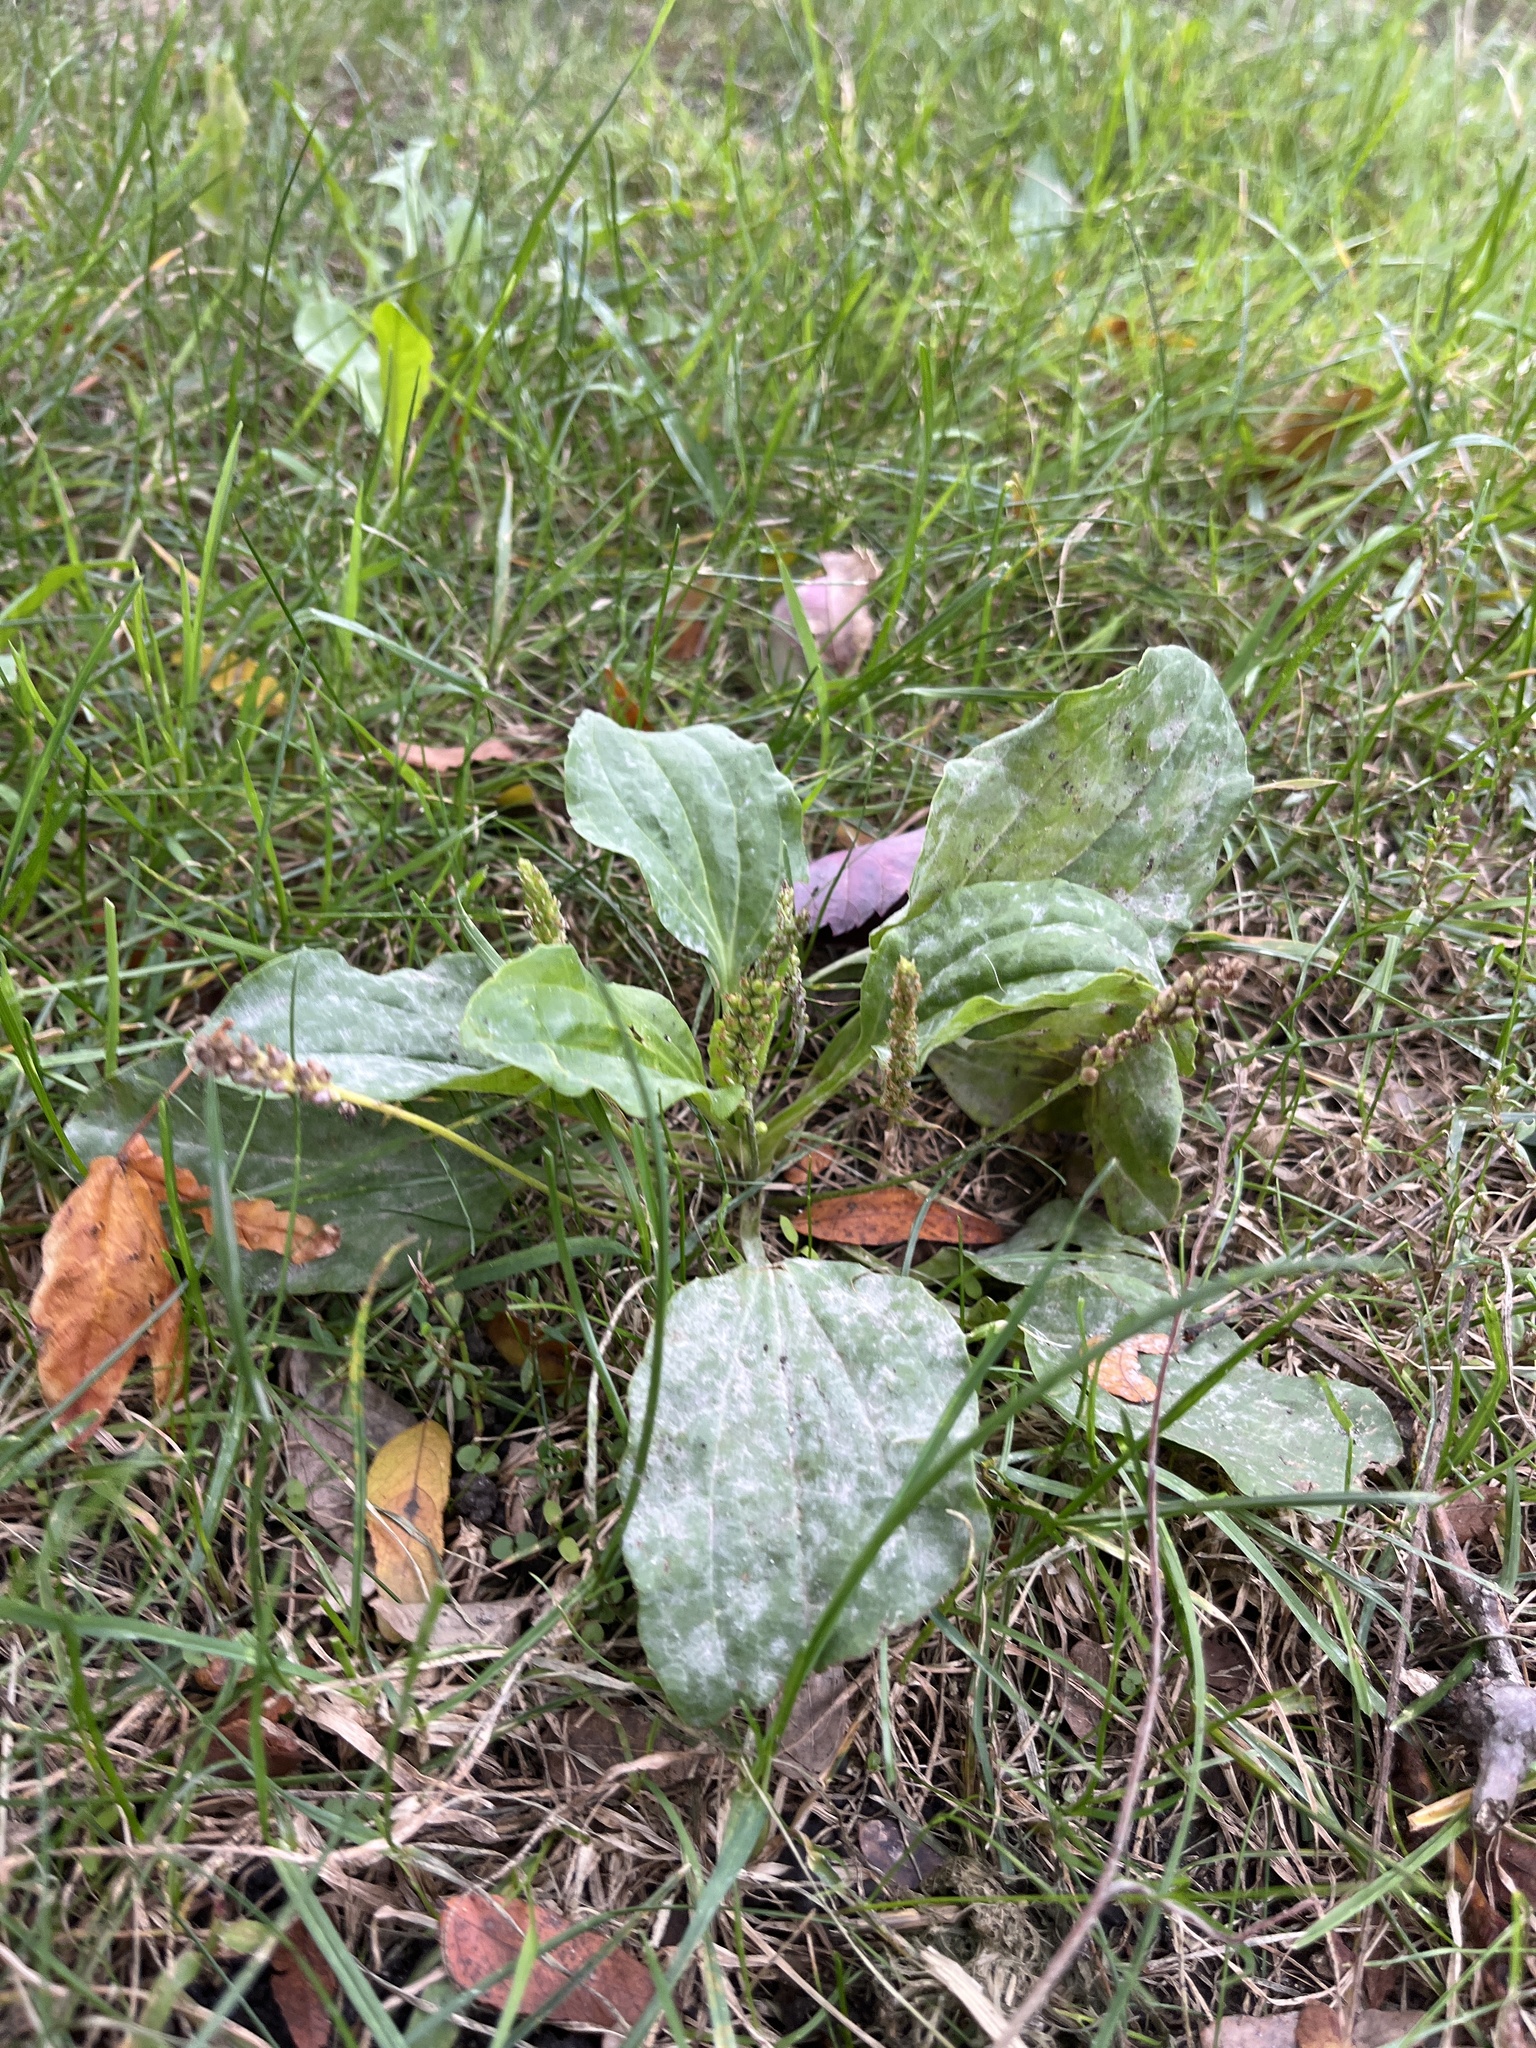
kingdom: Plantae
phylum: Tracheophyta
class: Magnoliopsida
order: Lamiales
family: Plantaginaceae
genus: Plantago
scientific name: Plantago major
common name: Common plantain
